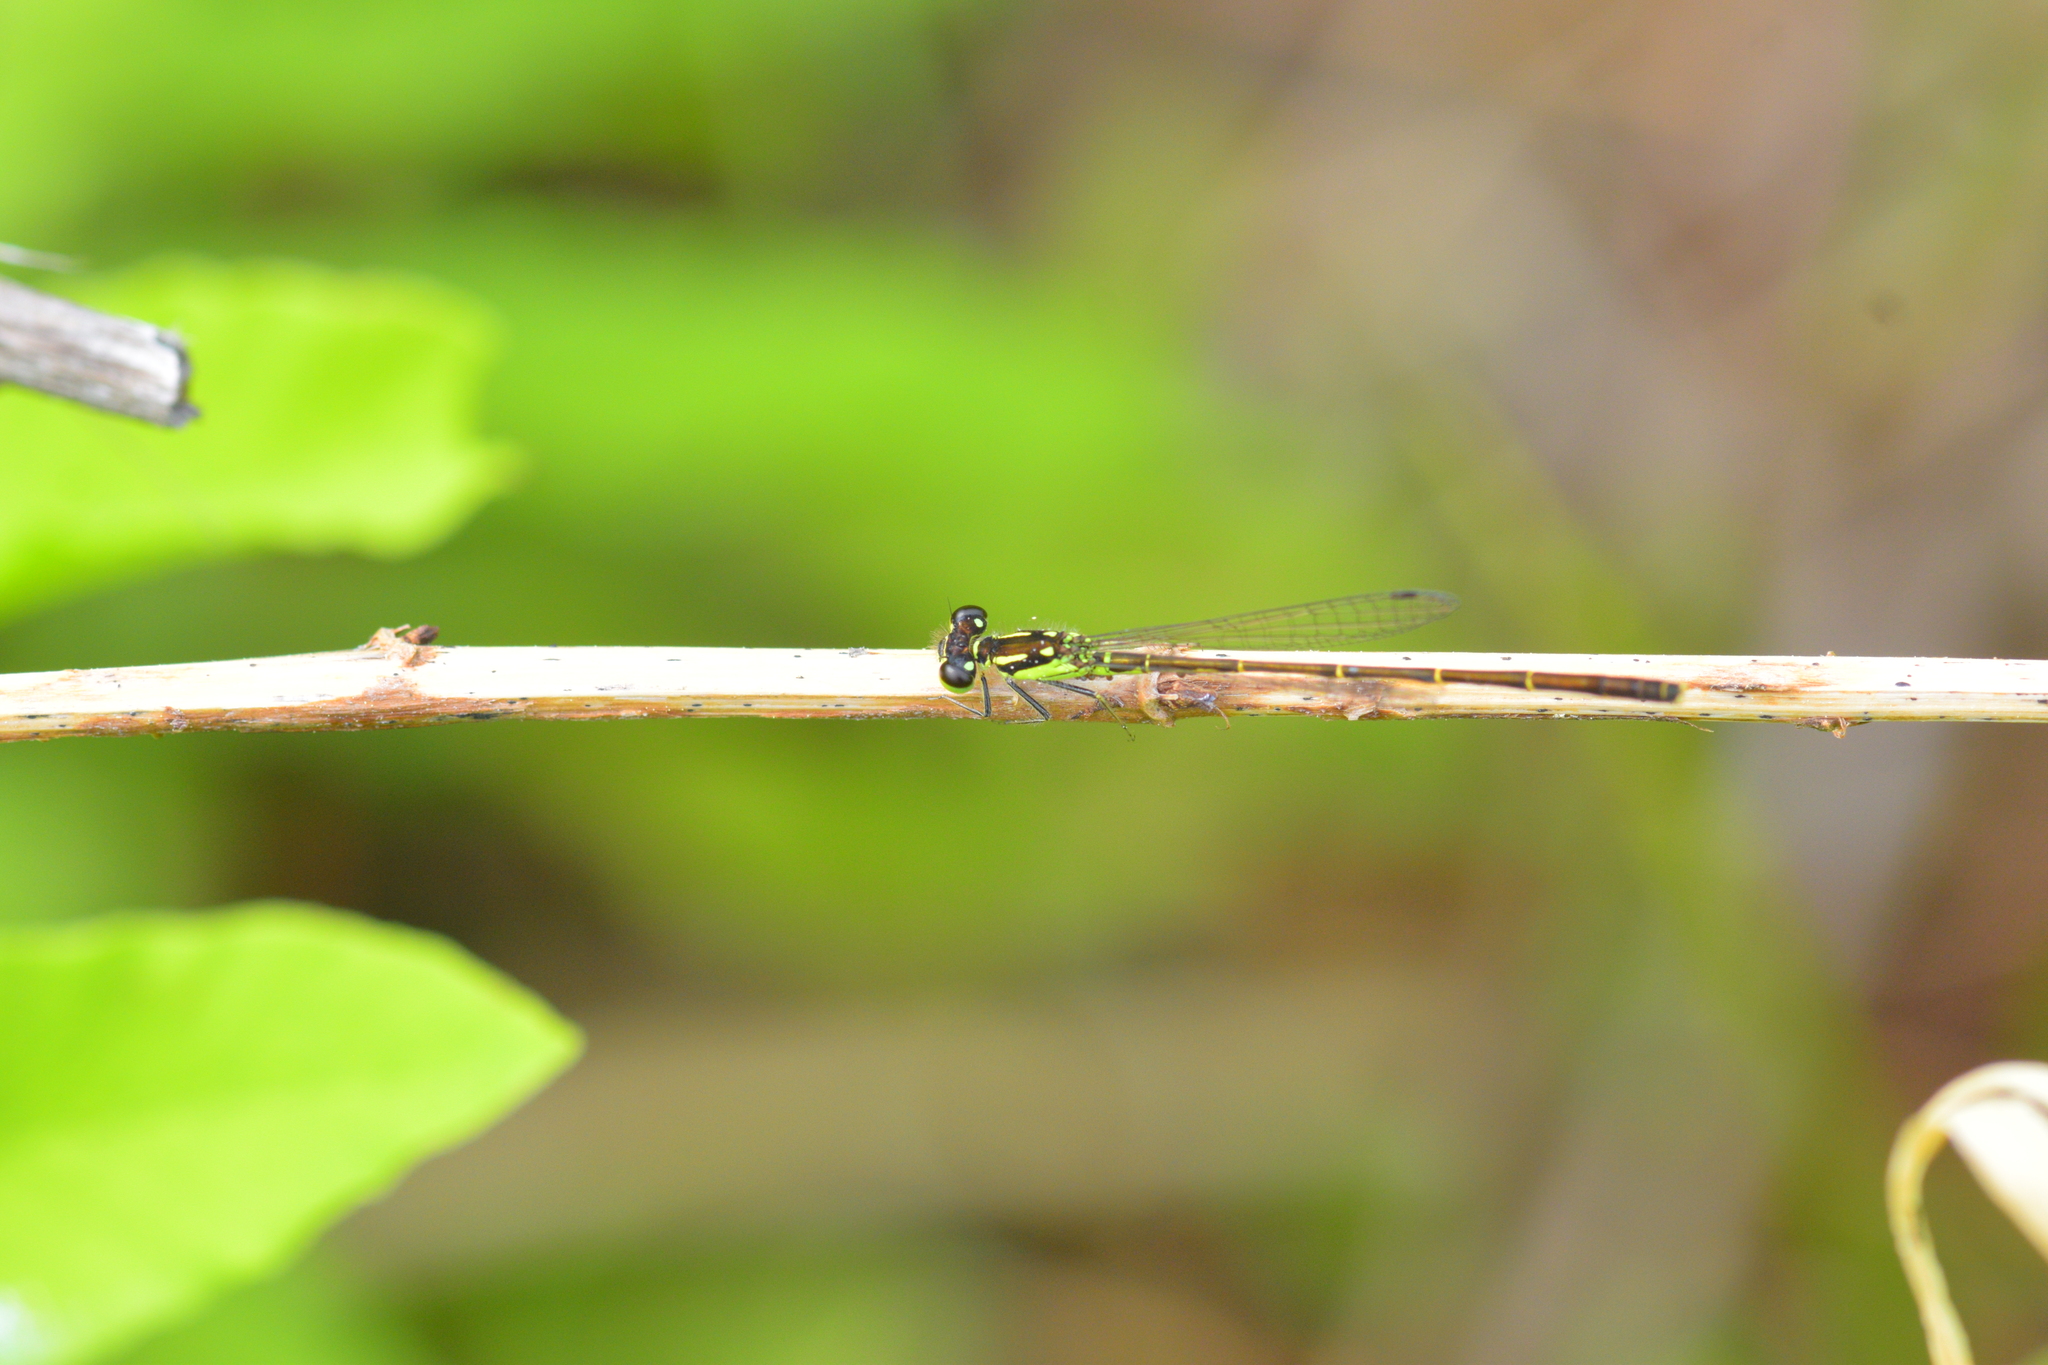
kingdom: Animalia
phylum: Arthropoda
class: Insecta
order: Odonata
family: Coenagrionidae
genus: Ischnura
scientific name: Ischnura posita
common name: Fragile forktail
